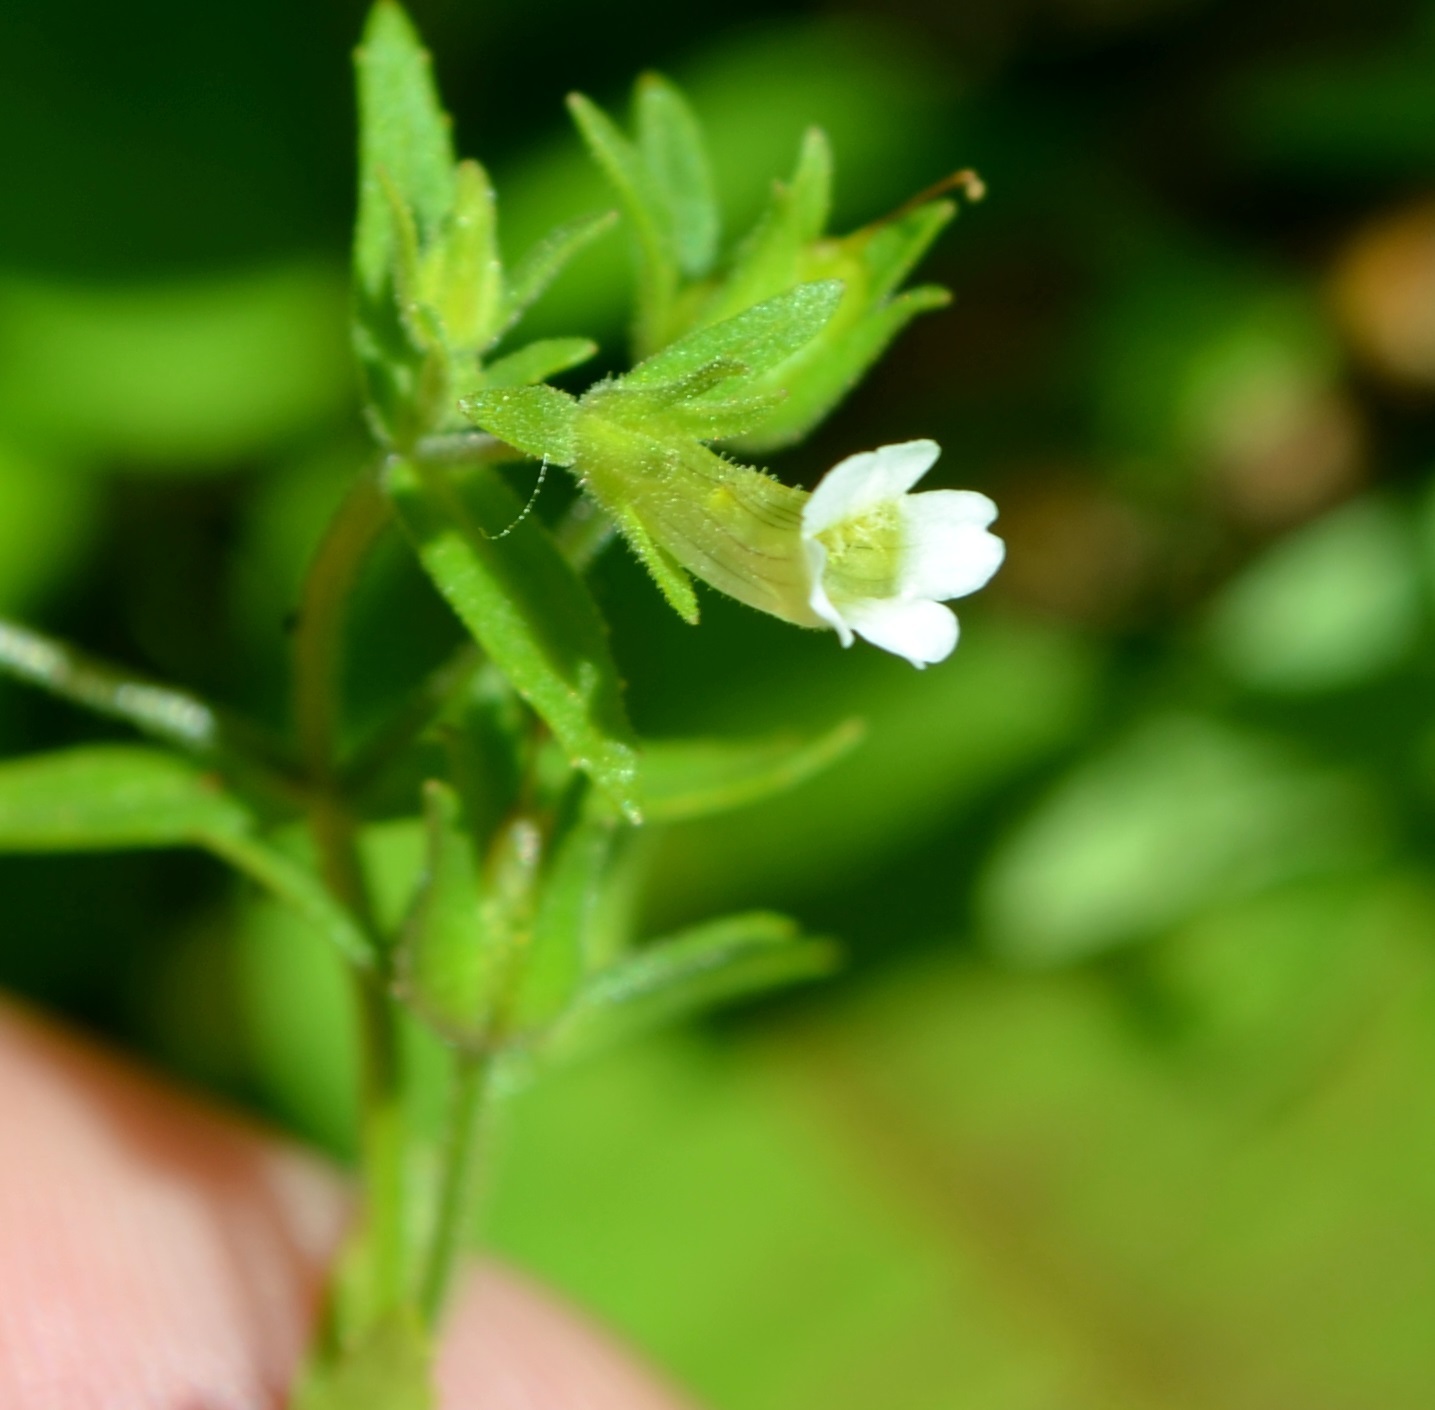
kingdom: Plantae
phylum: Tracheophyta
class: Magnoliopsida
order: Lamiales
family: Plantaginaceae
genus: Gratiola
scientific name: Gratiola neglecta
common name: American hedge-hyssop
